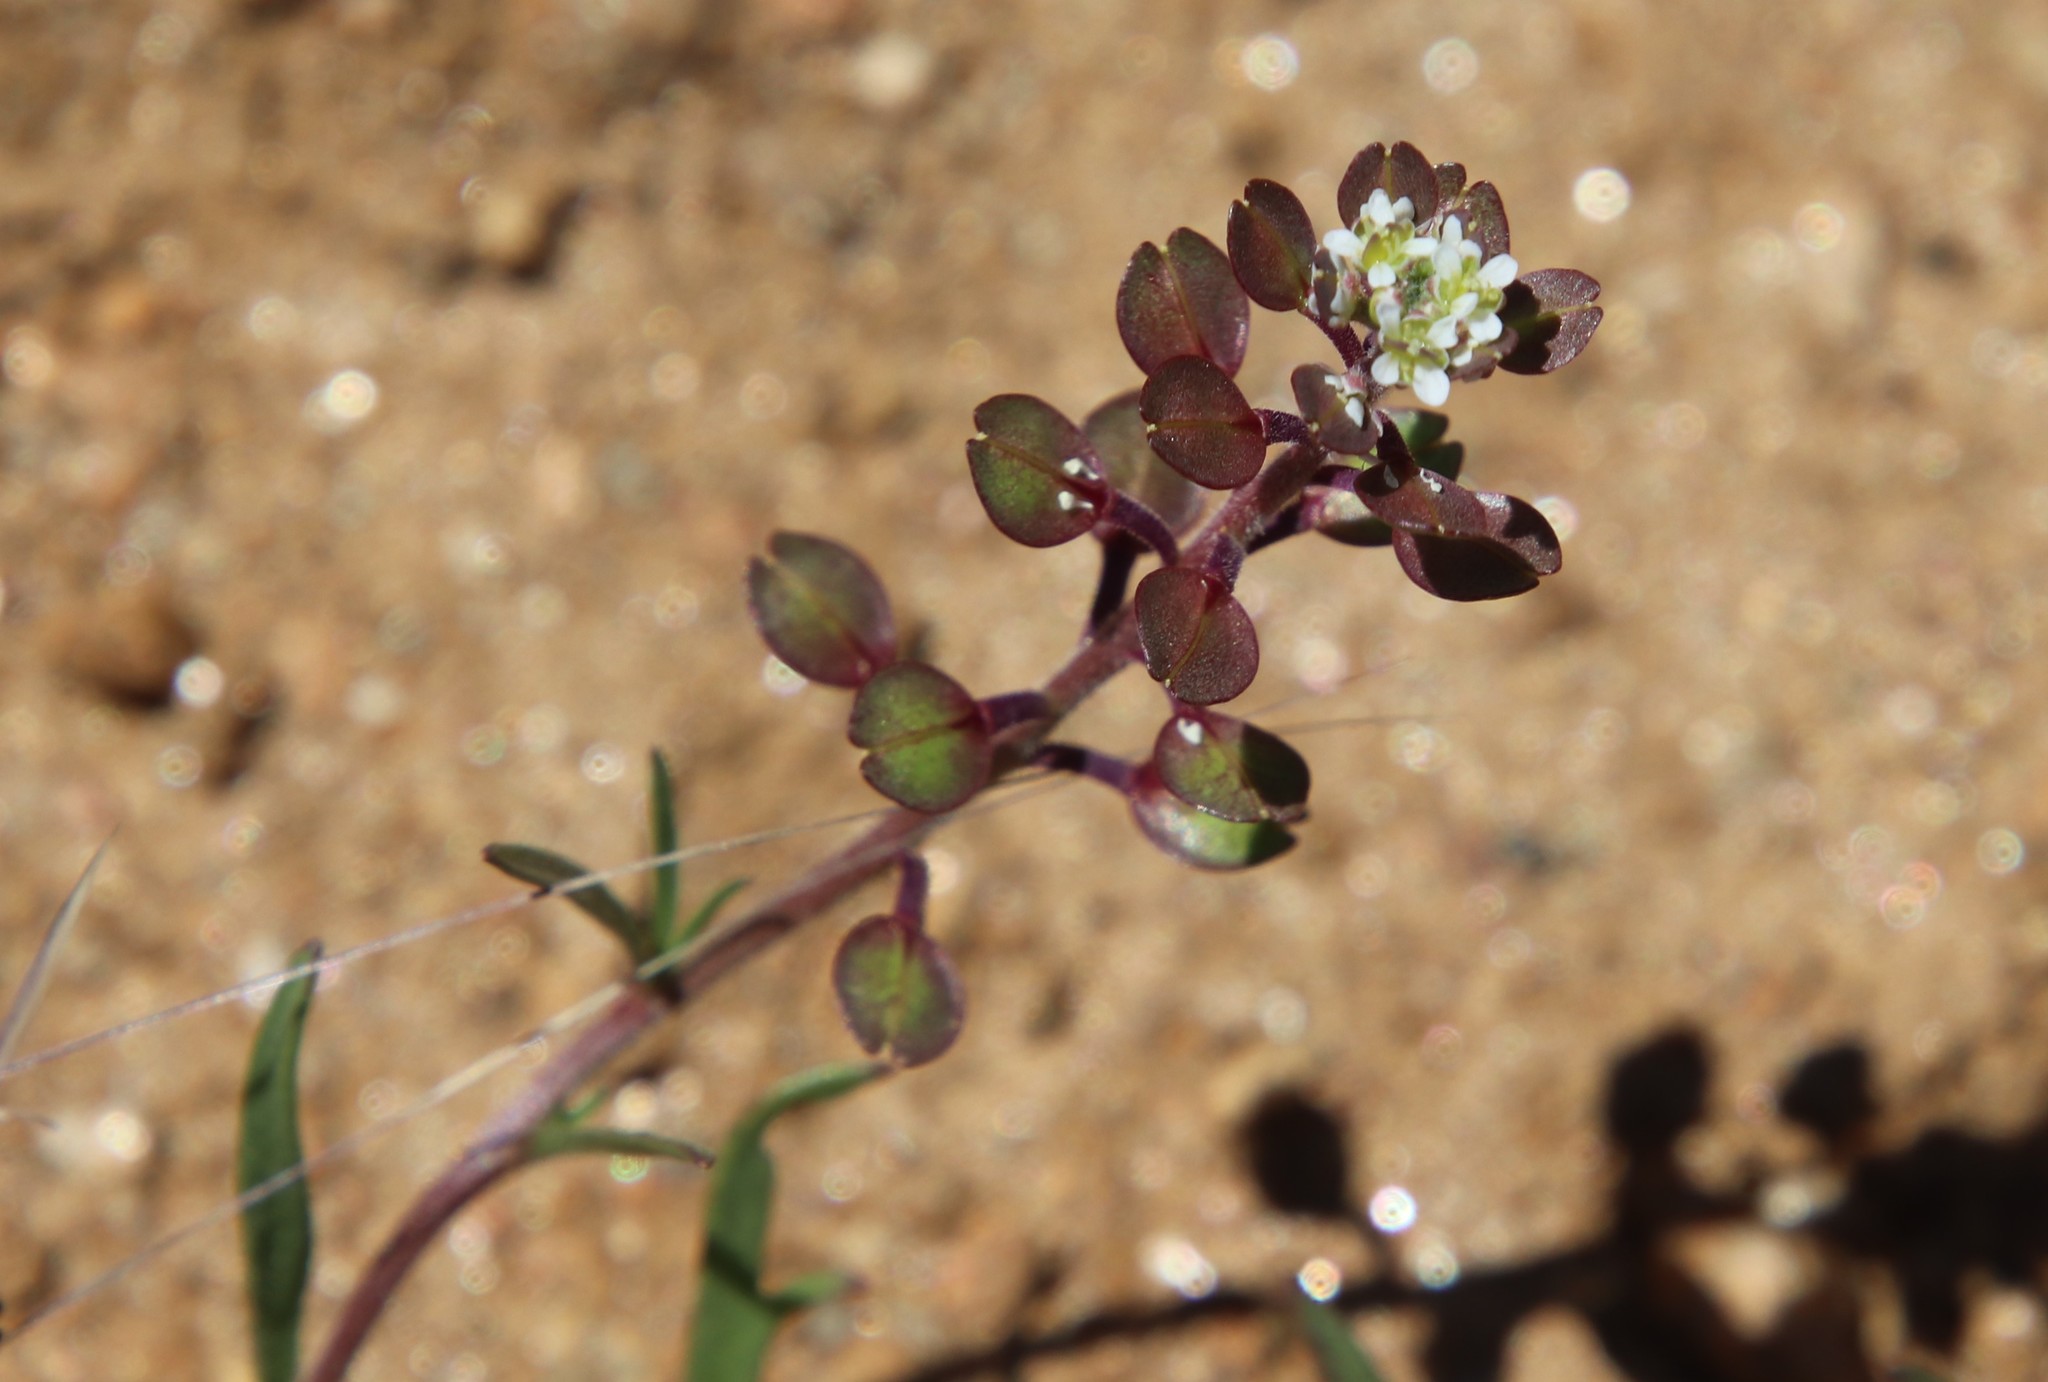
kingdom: Plantae
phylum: Tracheophyta
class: Magnoliopsida
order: Brassicales
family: Brassicaceae
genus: Lepidium
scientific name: Lepidium nitidum
